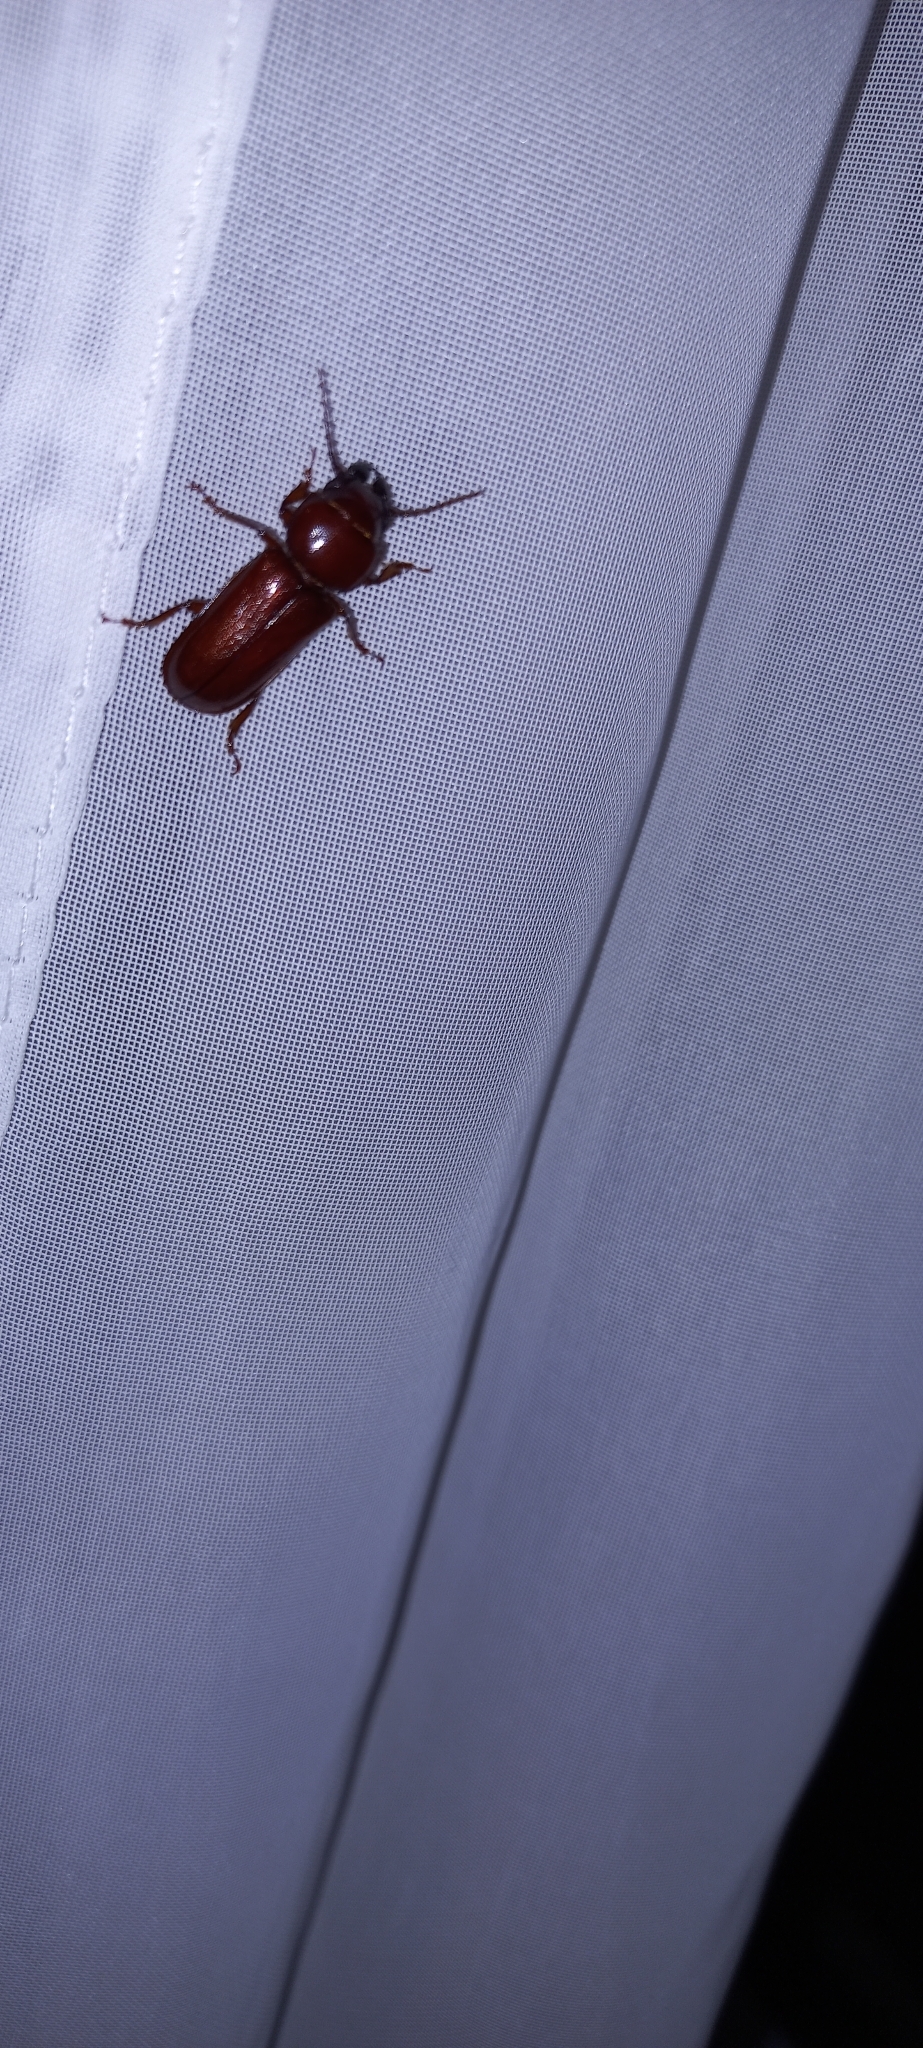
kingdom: Animalia
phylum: Arthropoda
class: Insecta
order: Coleoptera
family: Cerambycidae
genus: Meridiandra
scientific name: Meridiandra capicola
